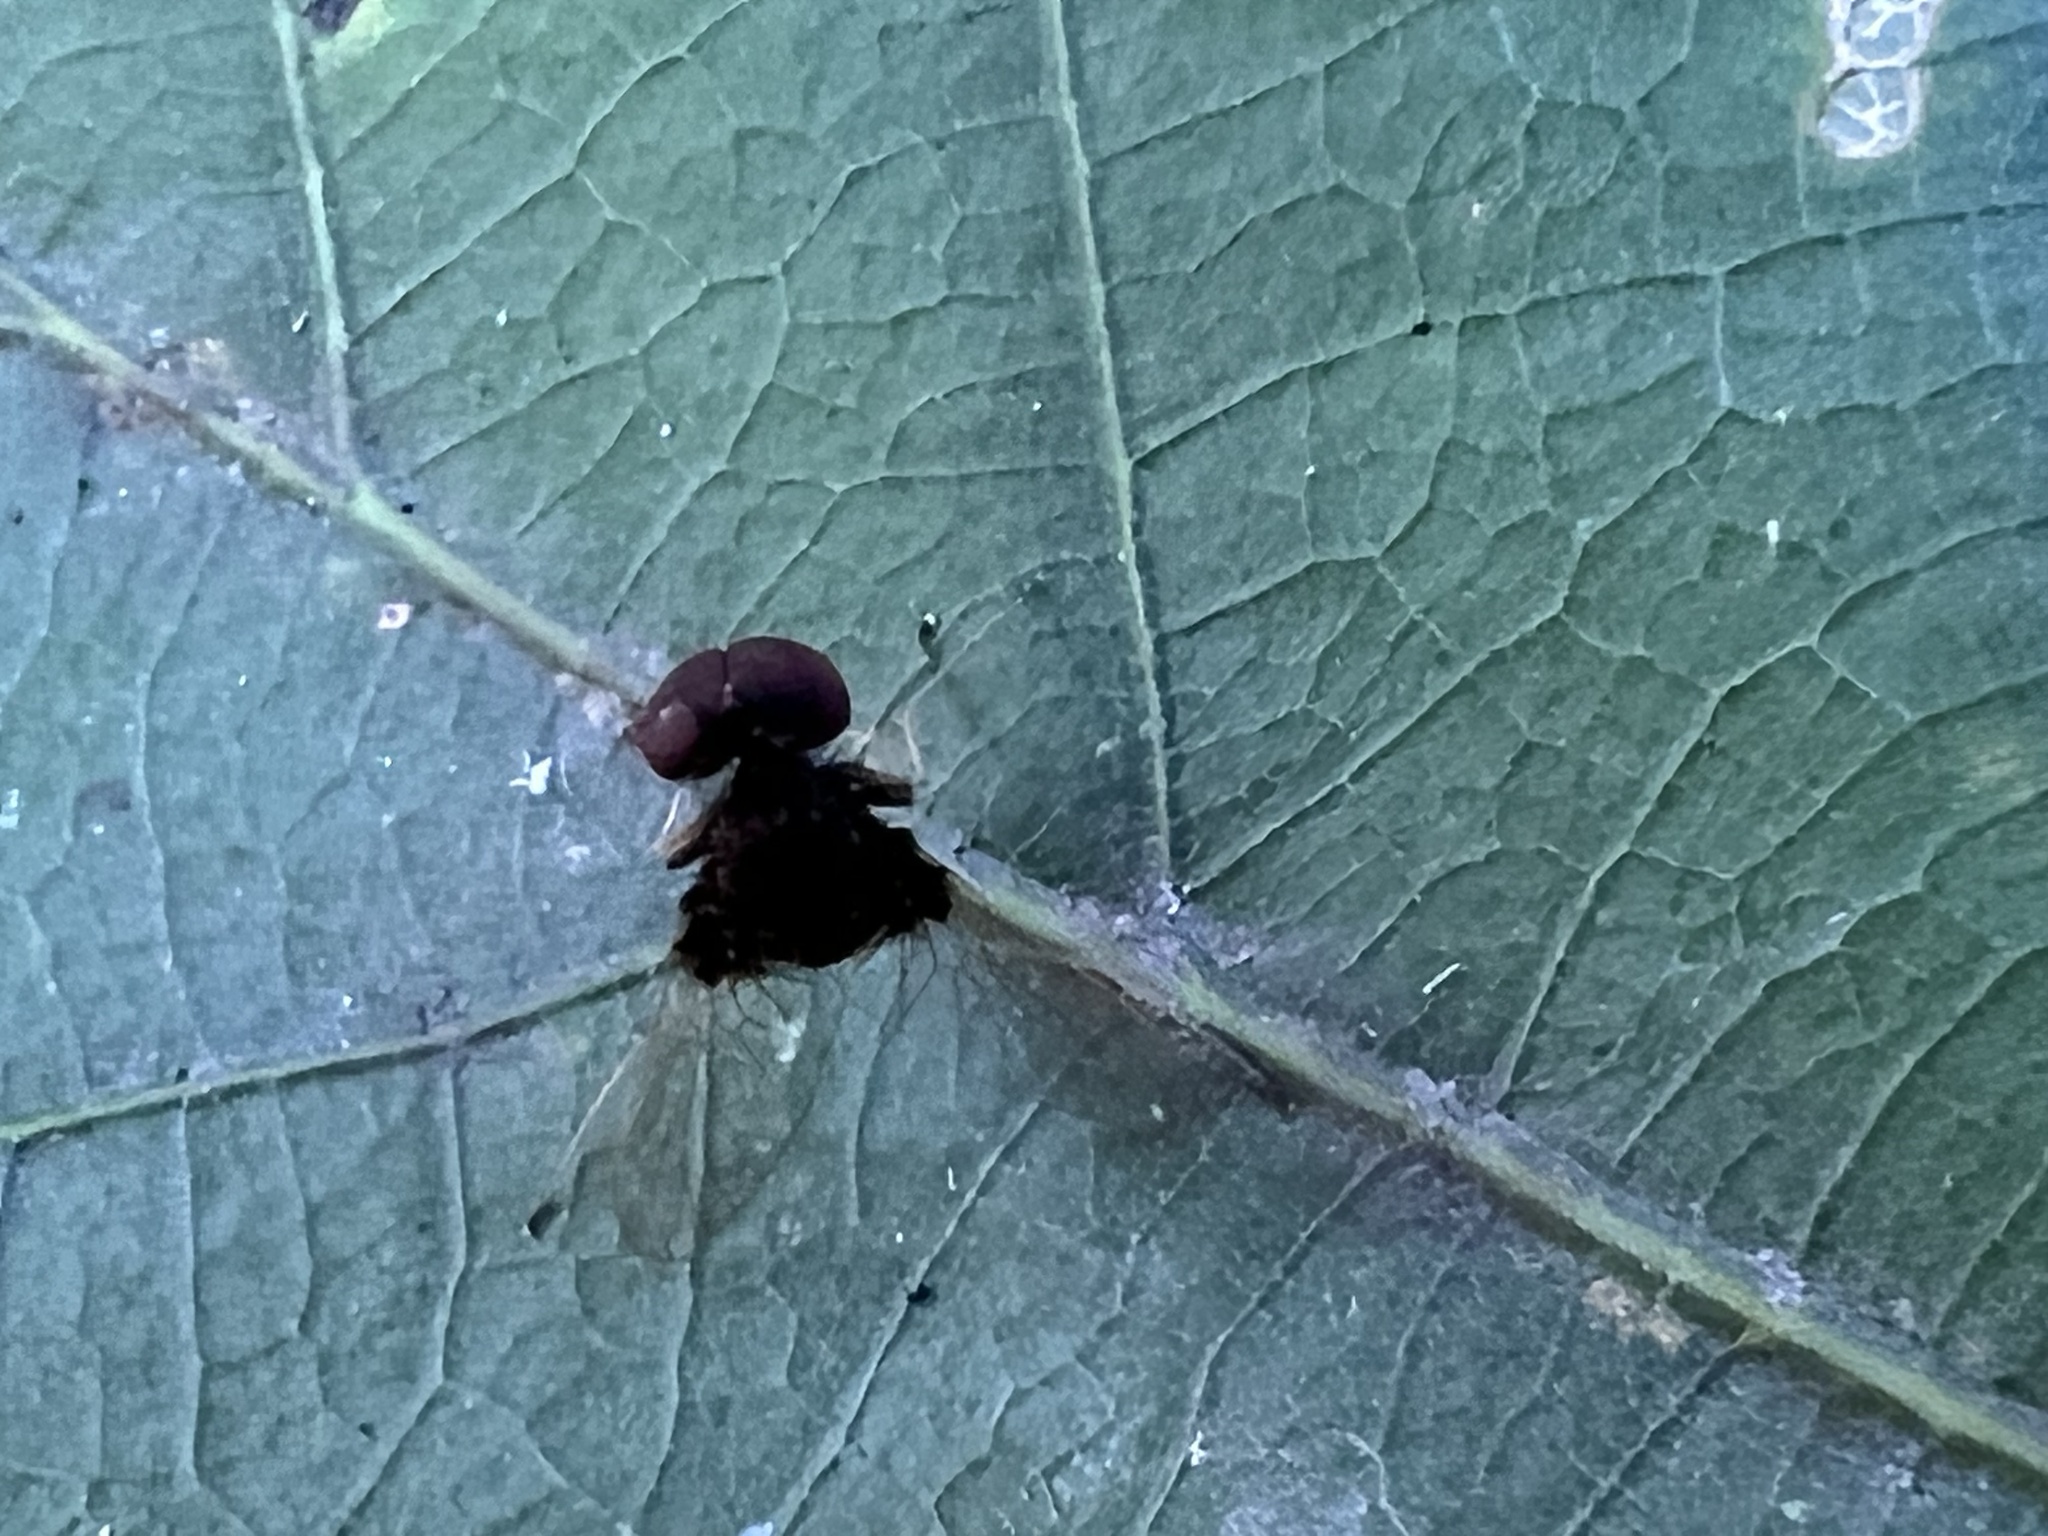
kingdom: Animalia
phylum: Arthropoda
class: Insecta
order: Diptera
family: Rhagionidae
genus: Chrysopilus
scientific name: Chrysopilus basilaris
